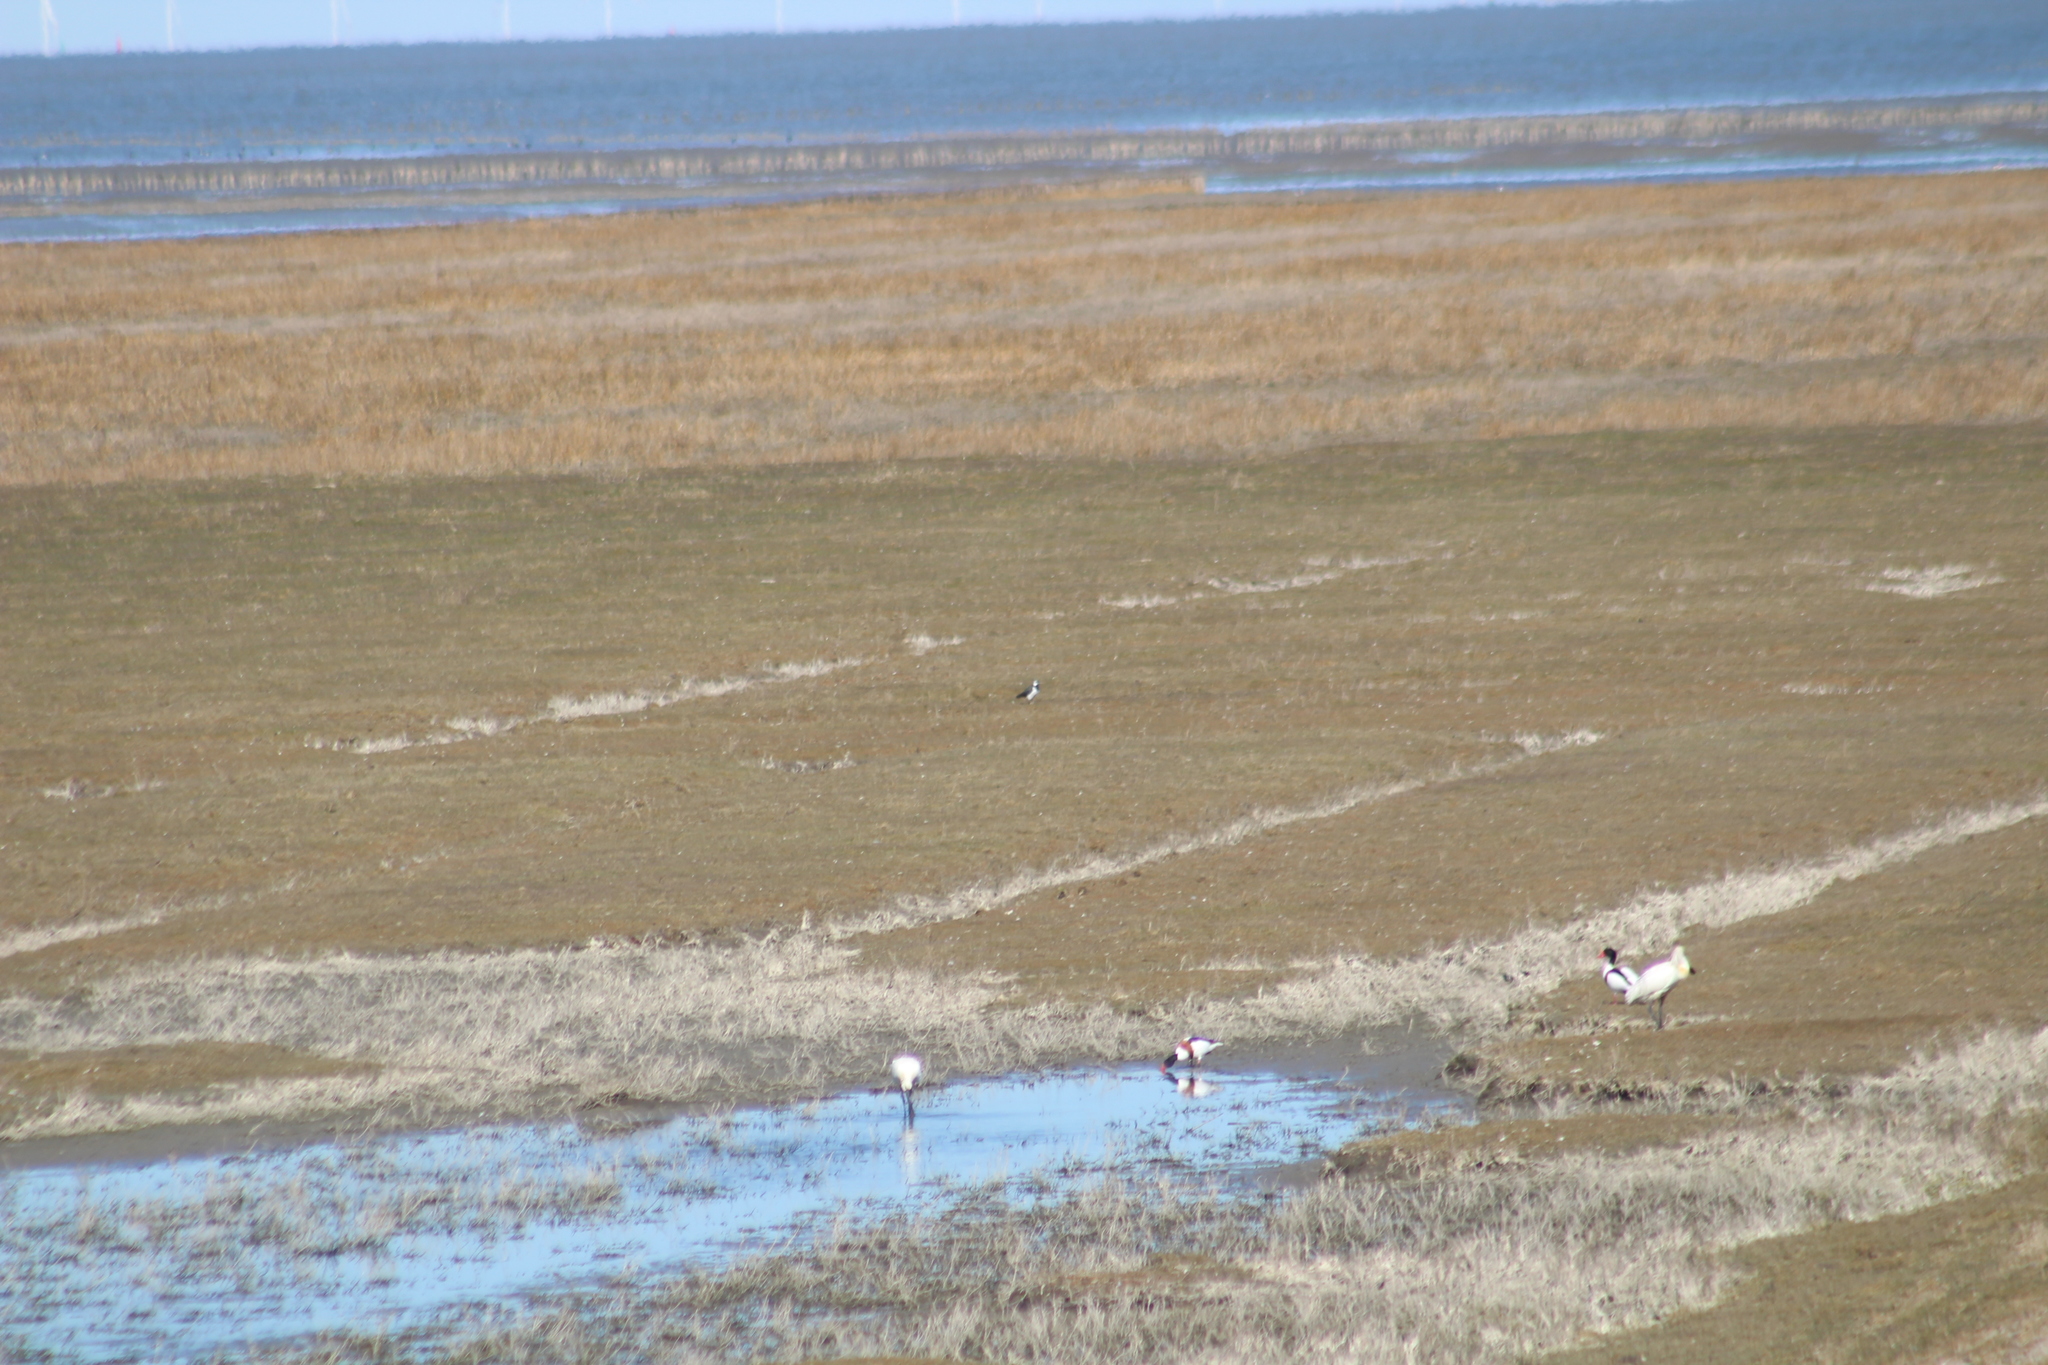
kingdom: Animalia
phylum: Chordata
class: Aves
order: Charadriiformes
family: Charadriidae
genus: Vanellus
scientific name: Vanellus vanellus
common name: Northern lapwing
